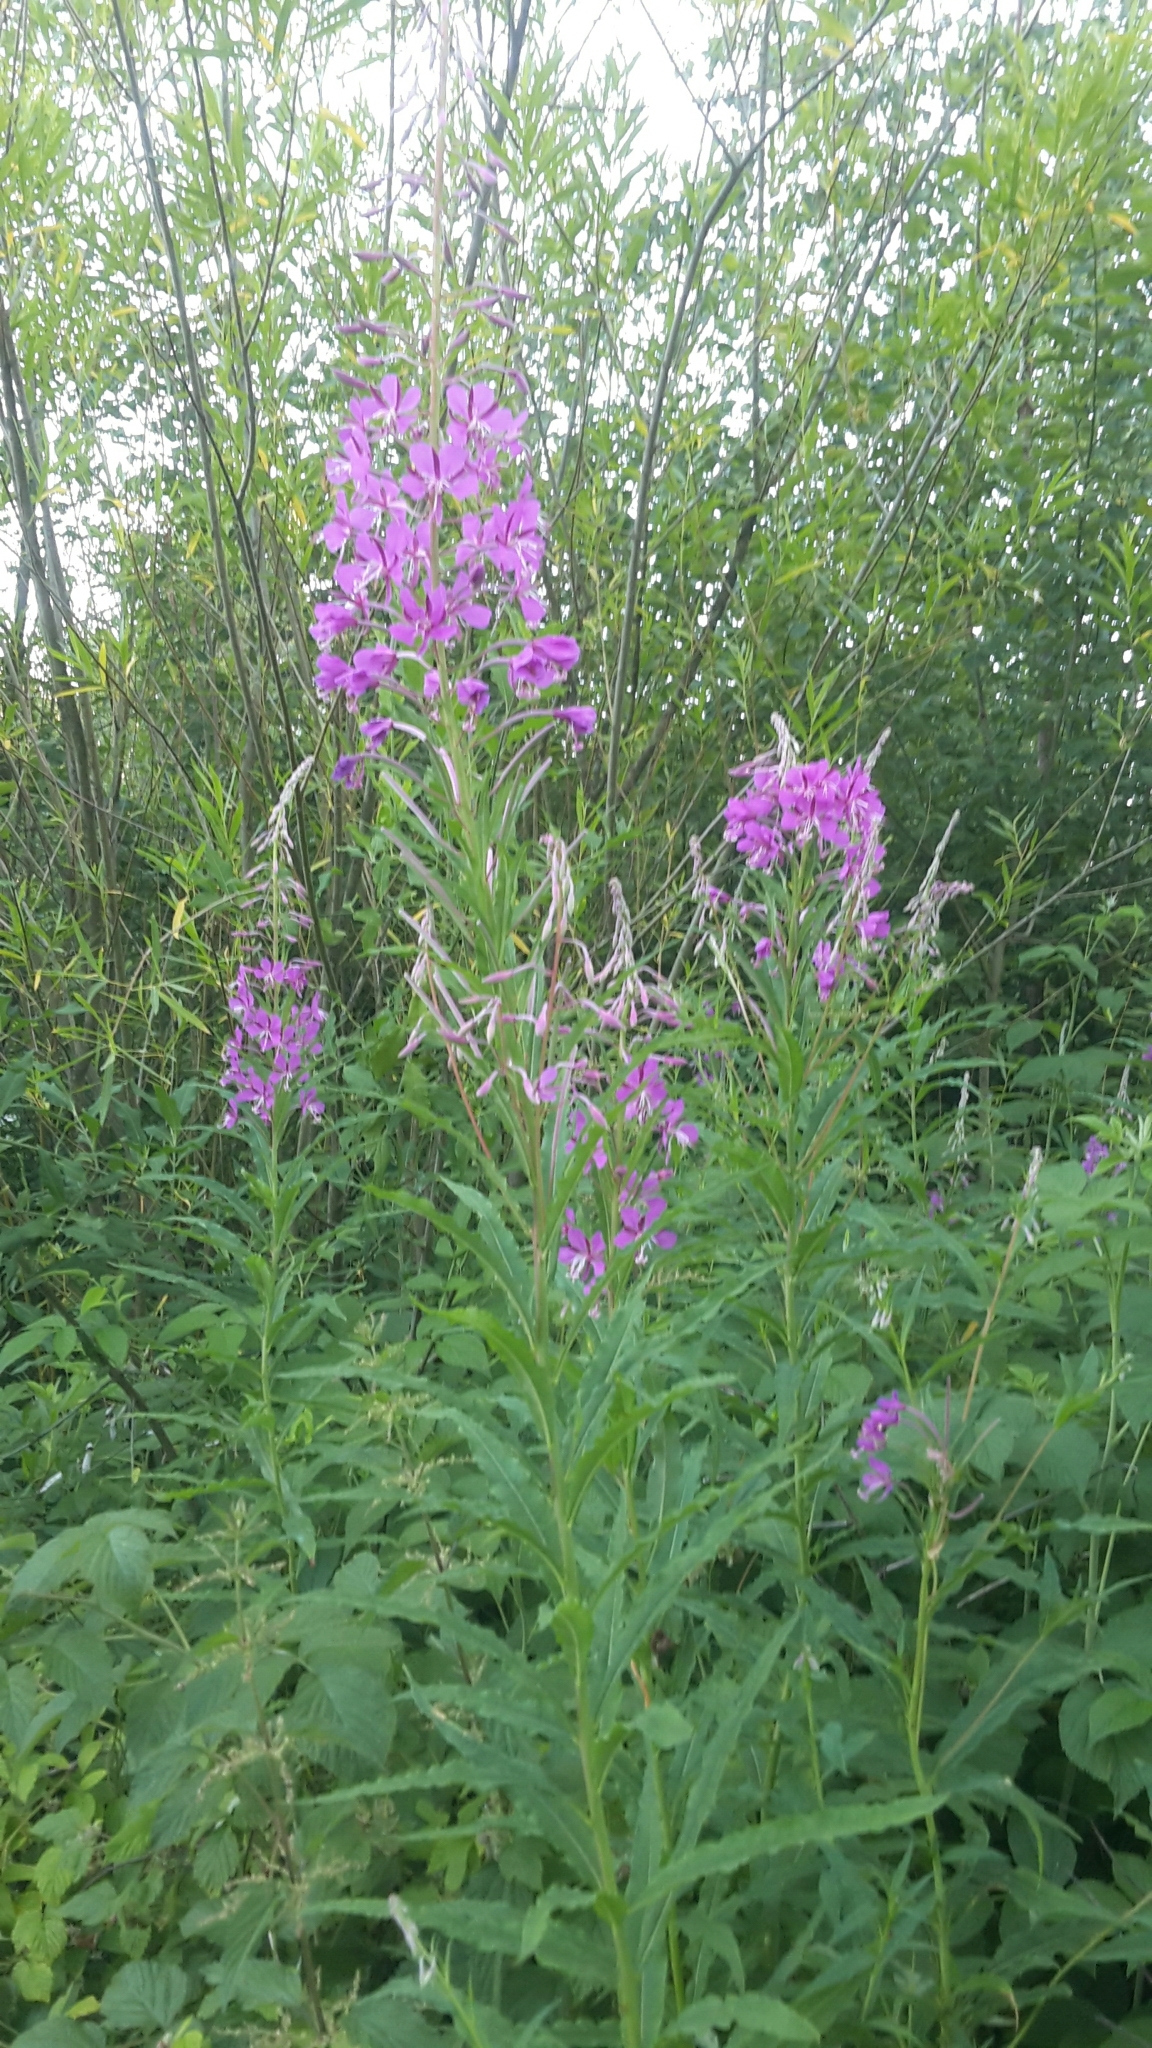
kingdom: Plantae
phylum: Tracheophyta
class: Magnoliopsida
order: Myrtales
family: Onagraceae
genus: Chamaenerion
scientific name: Chamaenerion angustifolium
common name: Fireweed
